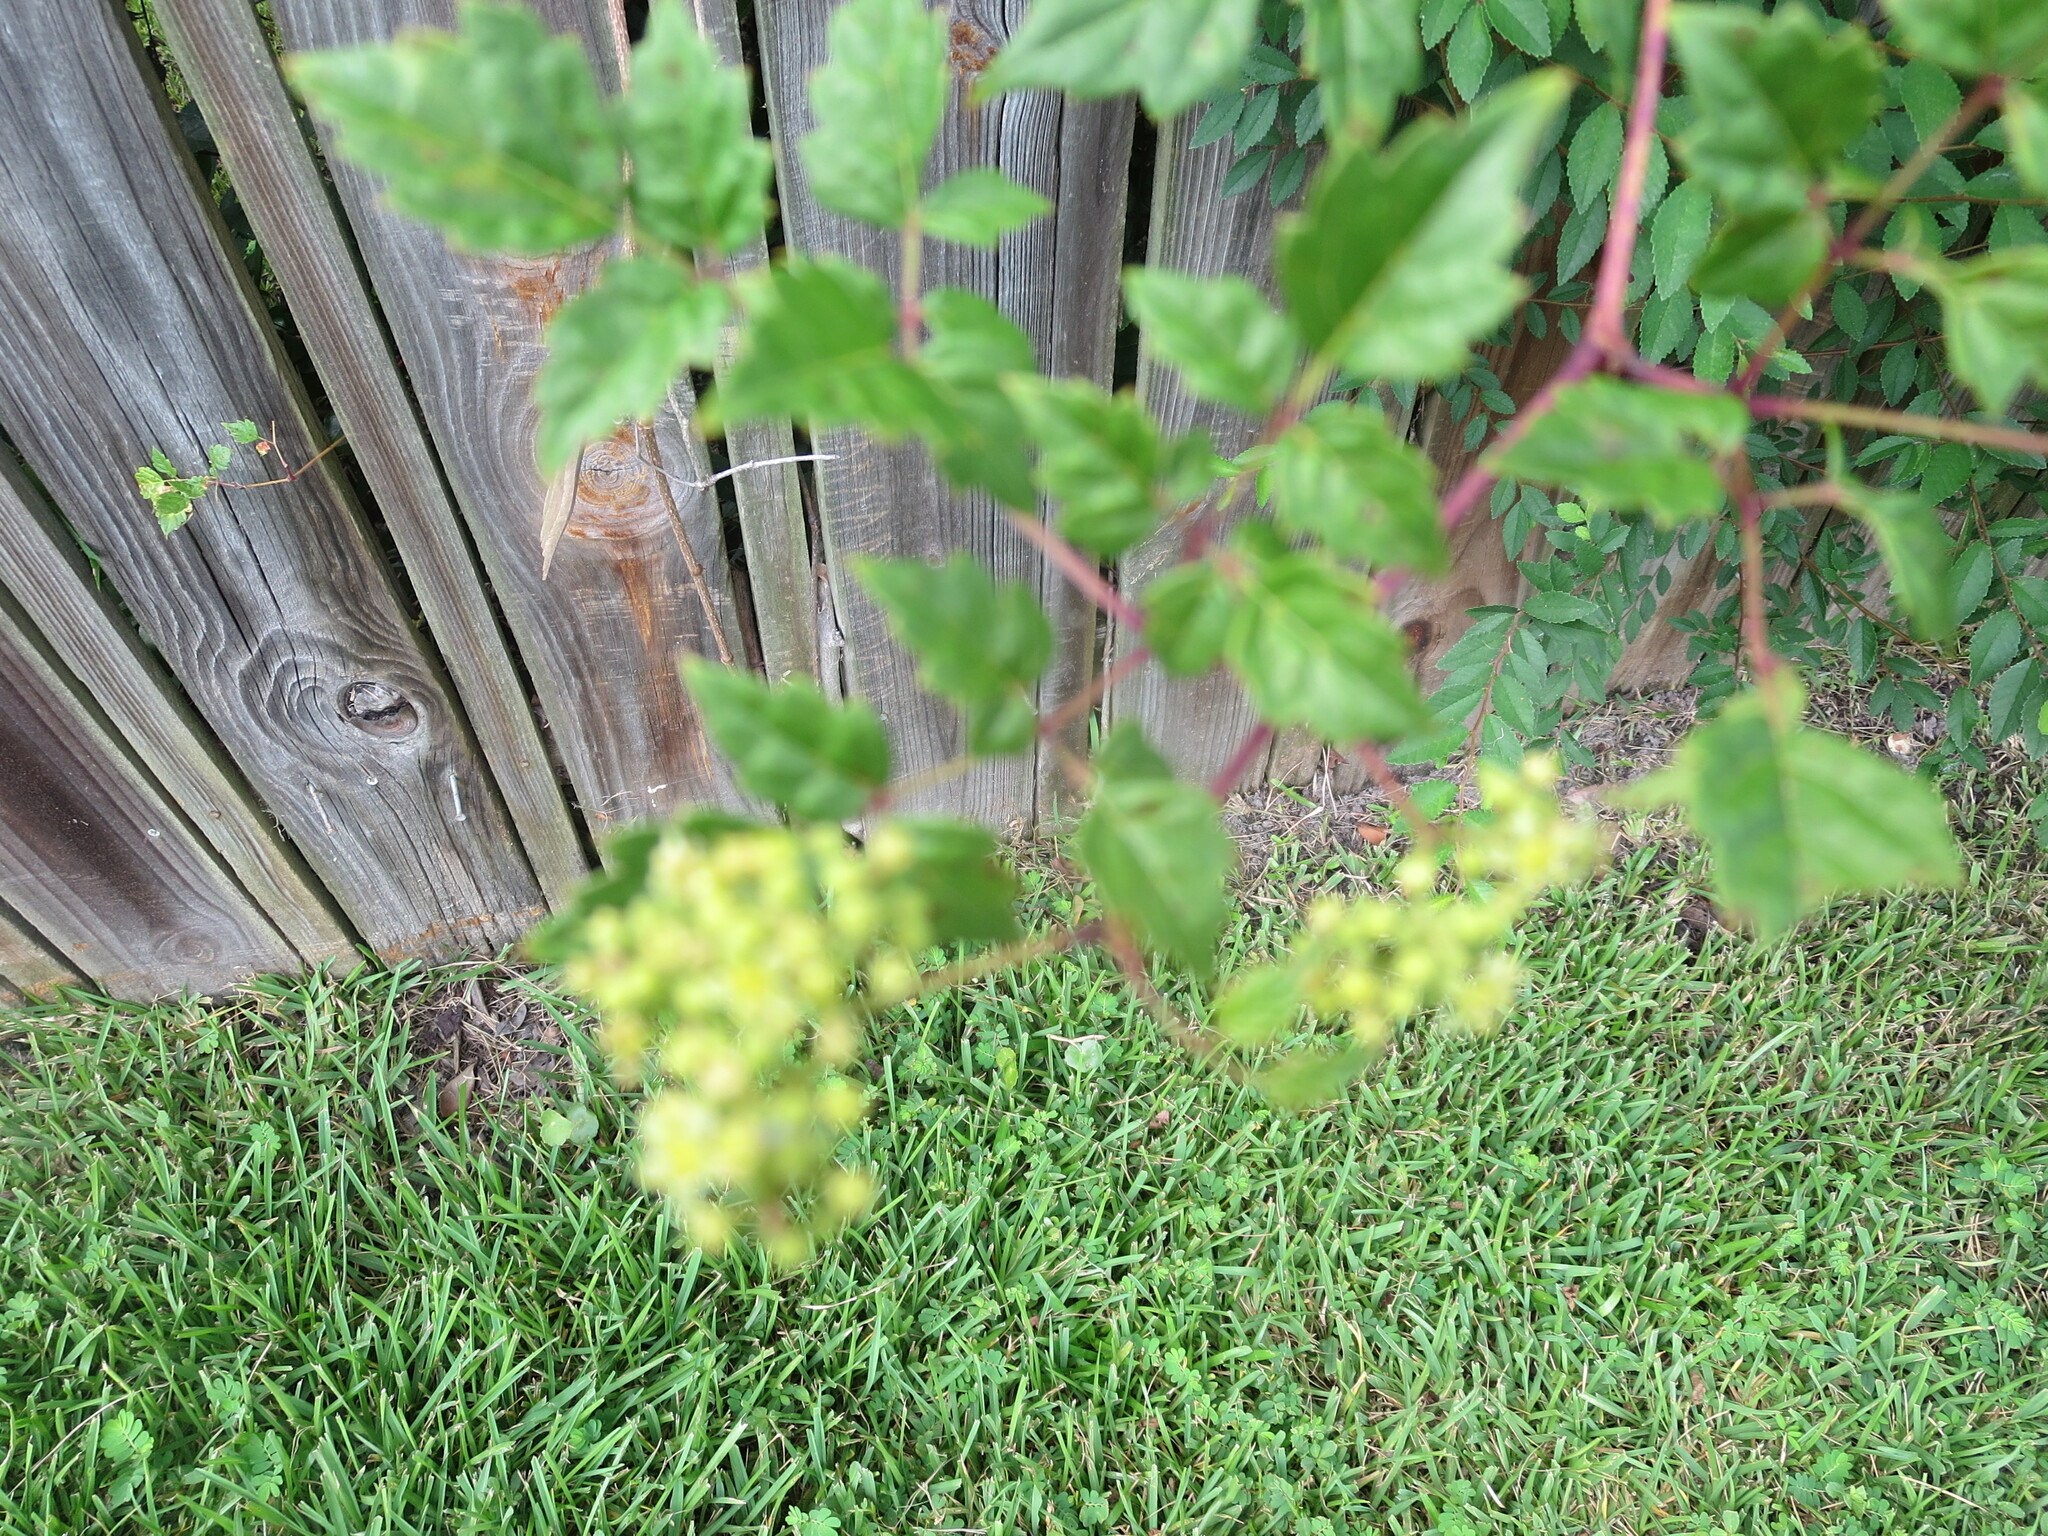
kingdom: Plantae
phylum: Tracheophyta
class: Magnoliopsida
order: Vitales
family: Vitaceae
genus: Nekemias
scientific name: Nekemias arborea
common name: Peppervine
